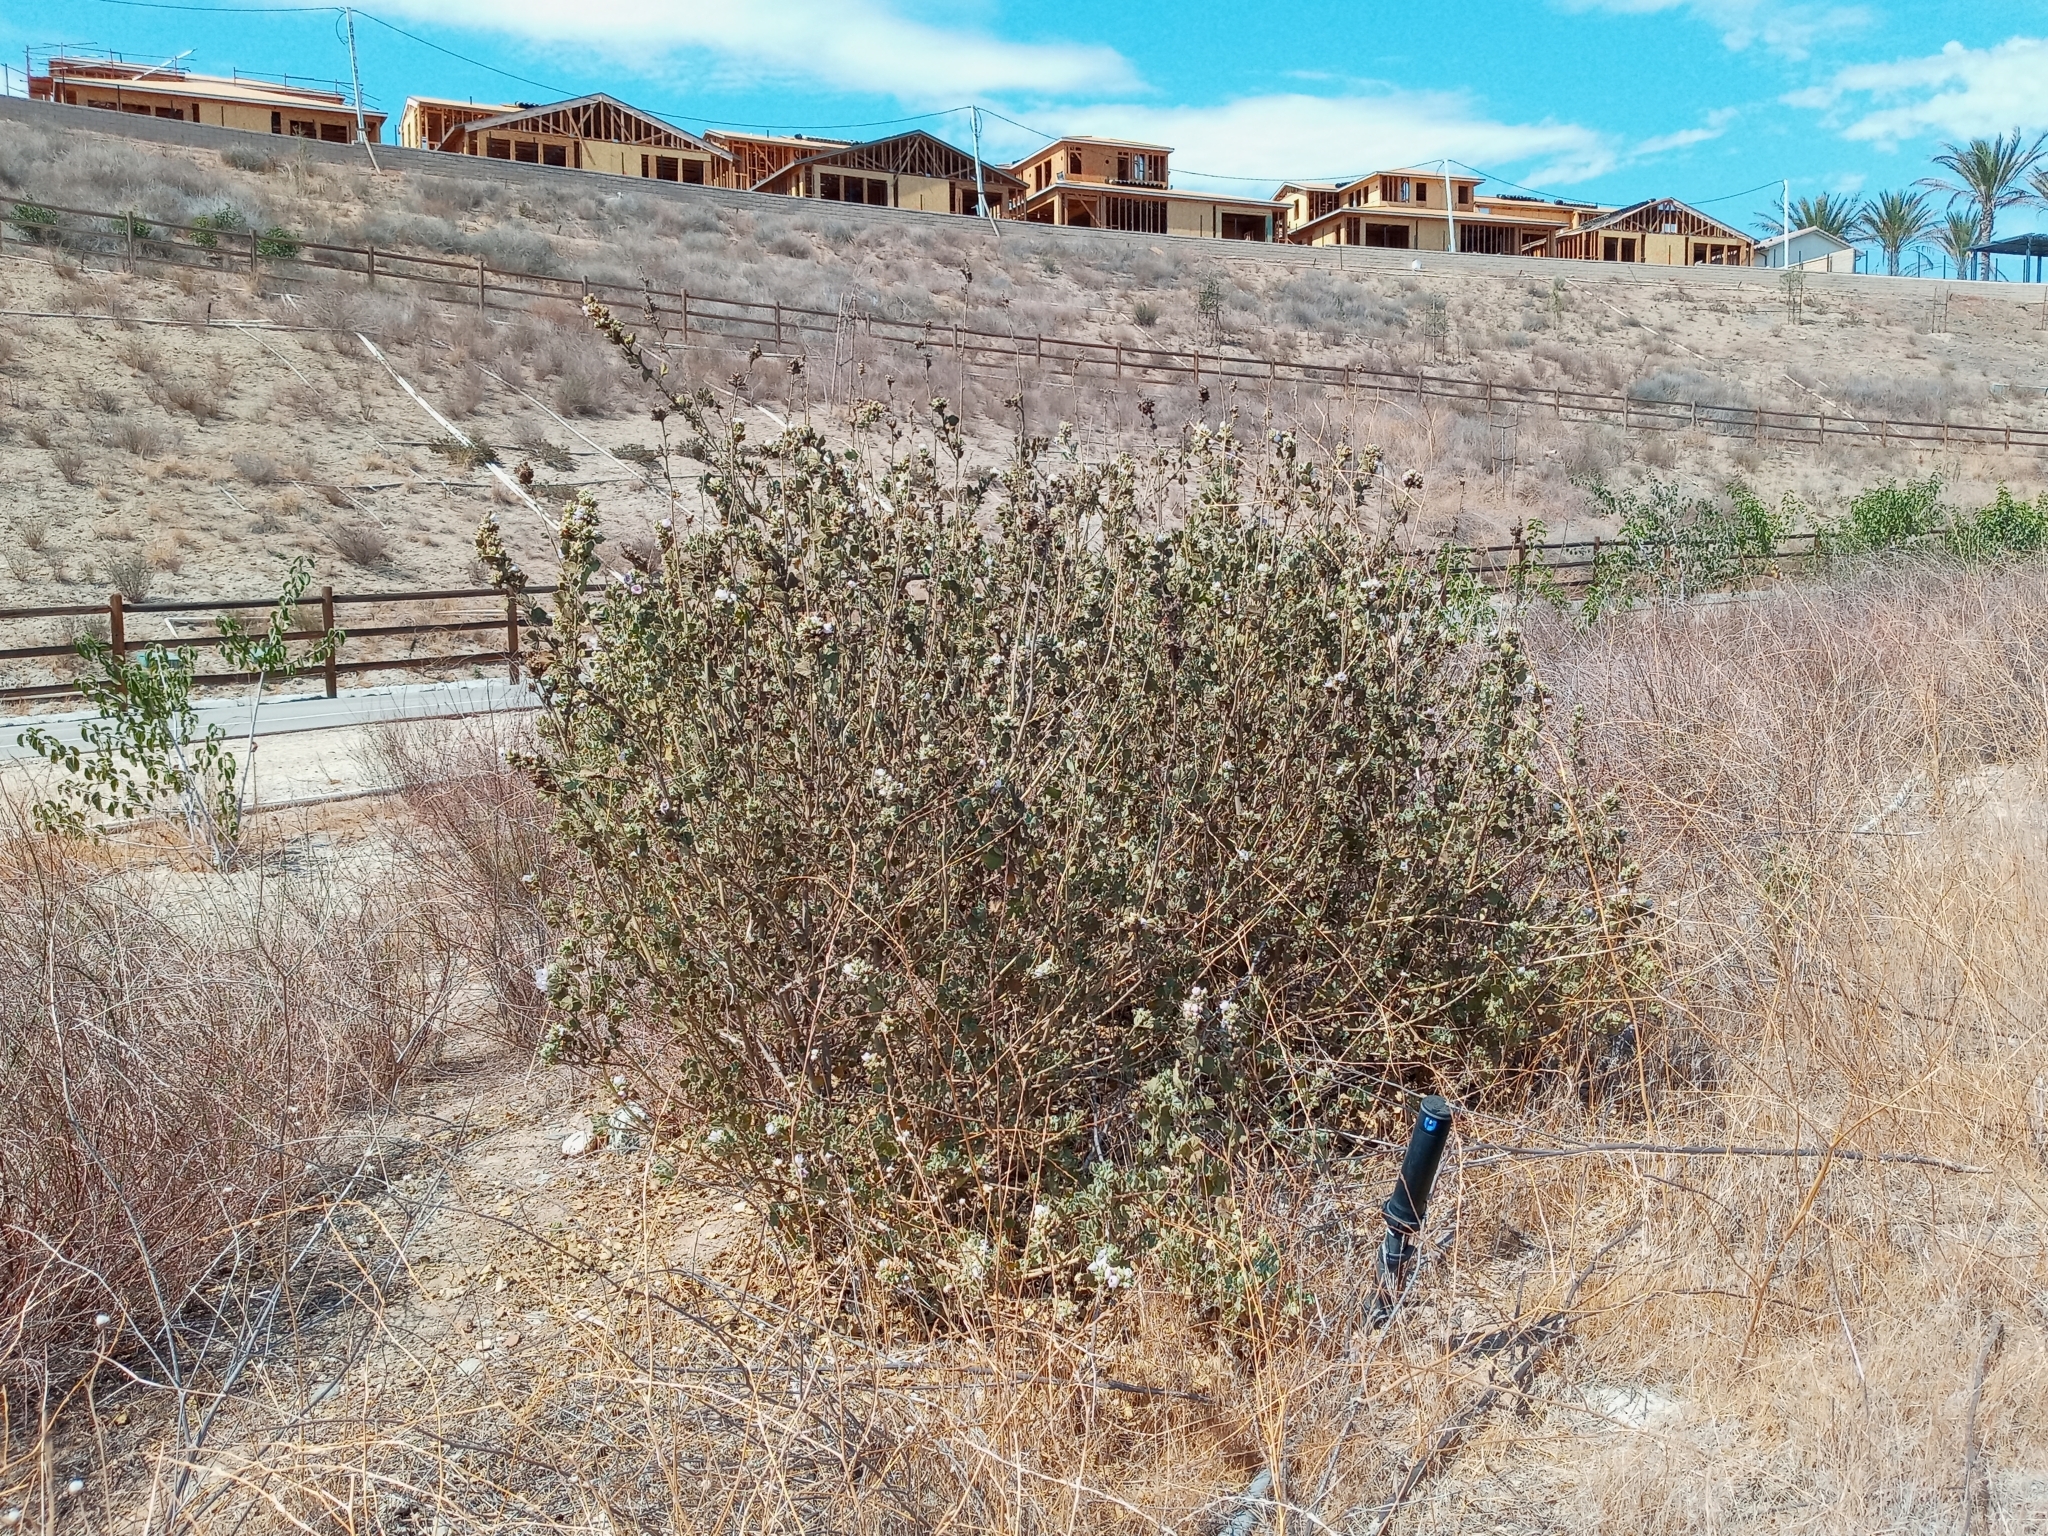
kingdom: Plantae
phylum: Tracheophyta
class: Magnoliopsida
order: Malvales
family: Malvaceae
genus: Malacothamnus
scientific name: Malacothamnus marrubioides
